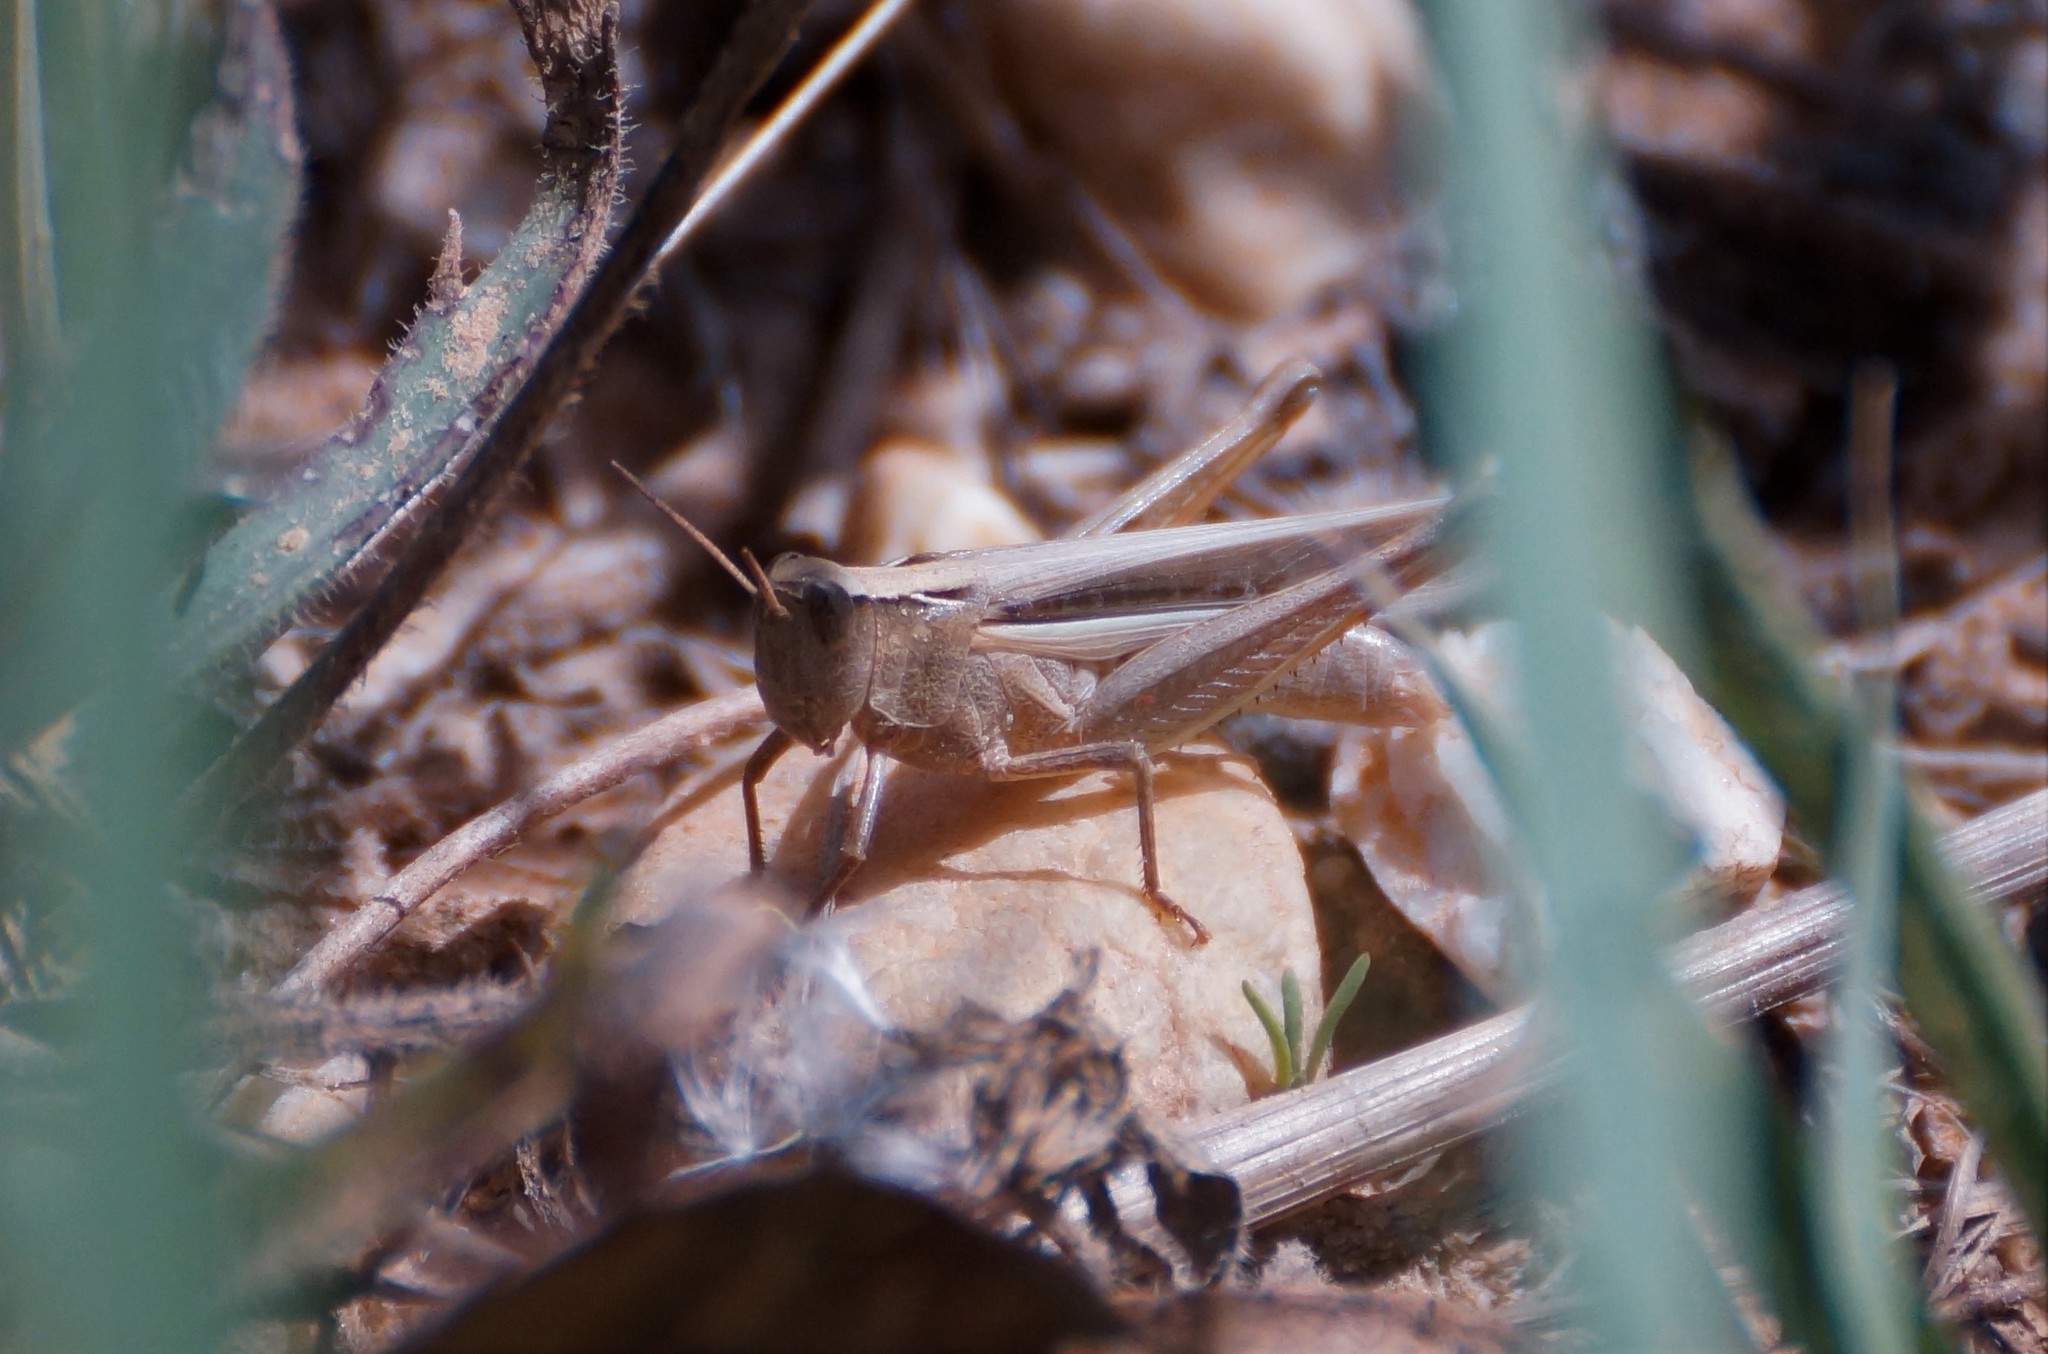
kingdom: Animalia
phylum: Arthropoda
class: Insecta
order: Orthoptera
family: Acrididae
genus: Schizobothrus
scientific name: Schizobothrus flavovittatus
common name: Disappearing grasshopper
